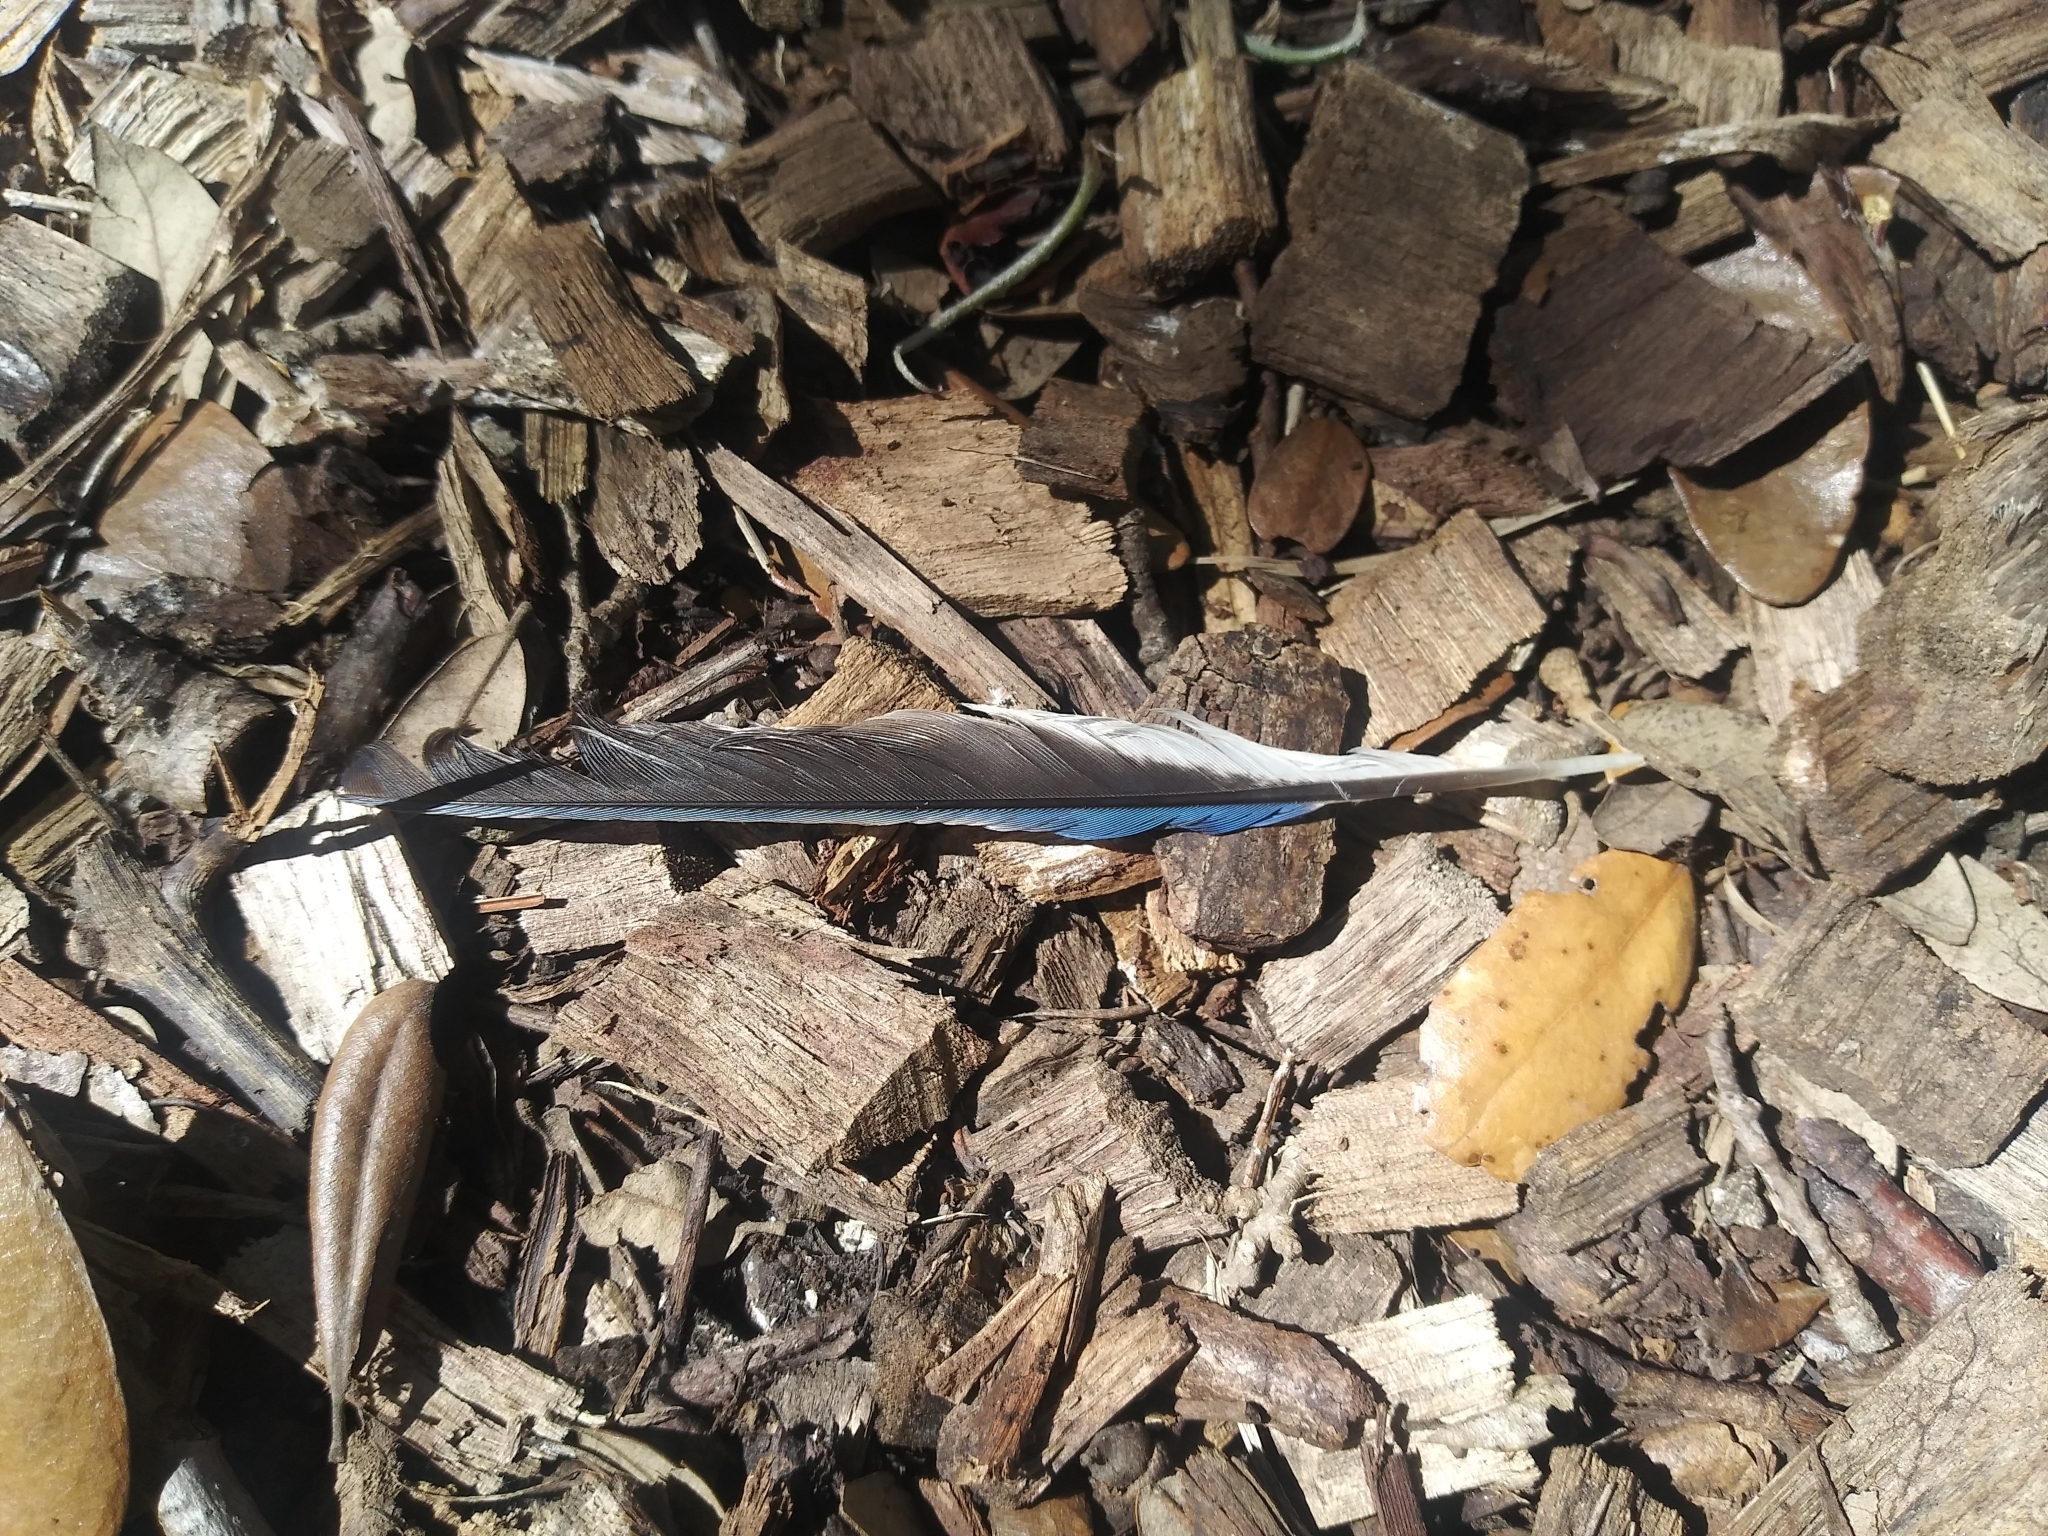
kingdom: Animalia
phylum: Chordata
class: Aves
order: Passeriformes
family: Corvidae
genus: Cyanocitta
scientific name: Cyanocitta cristata
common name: Blue jay
